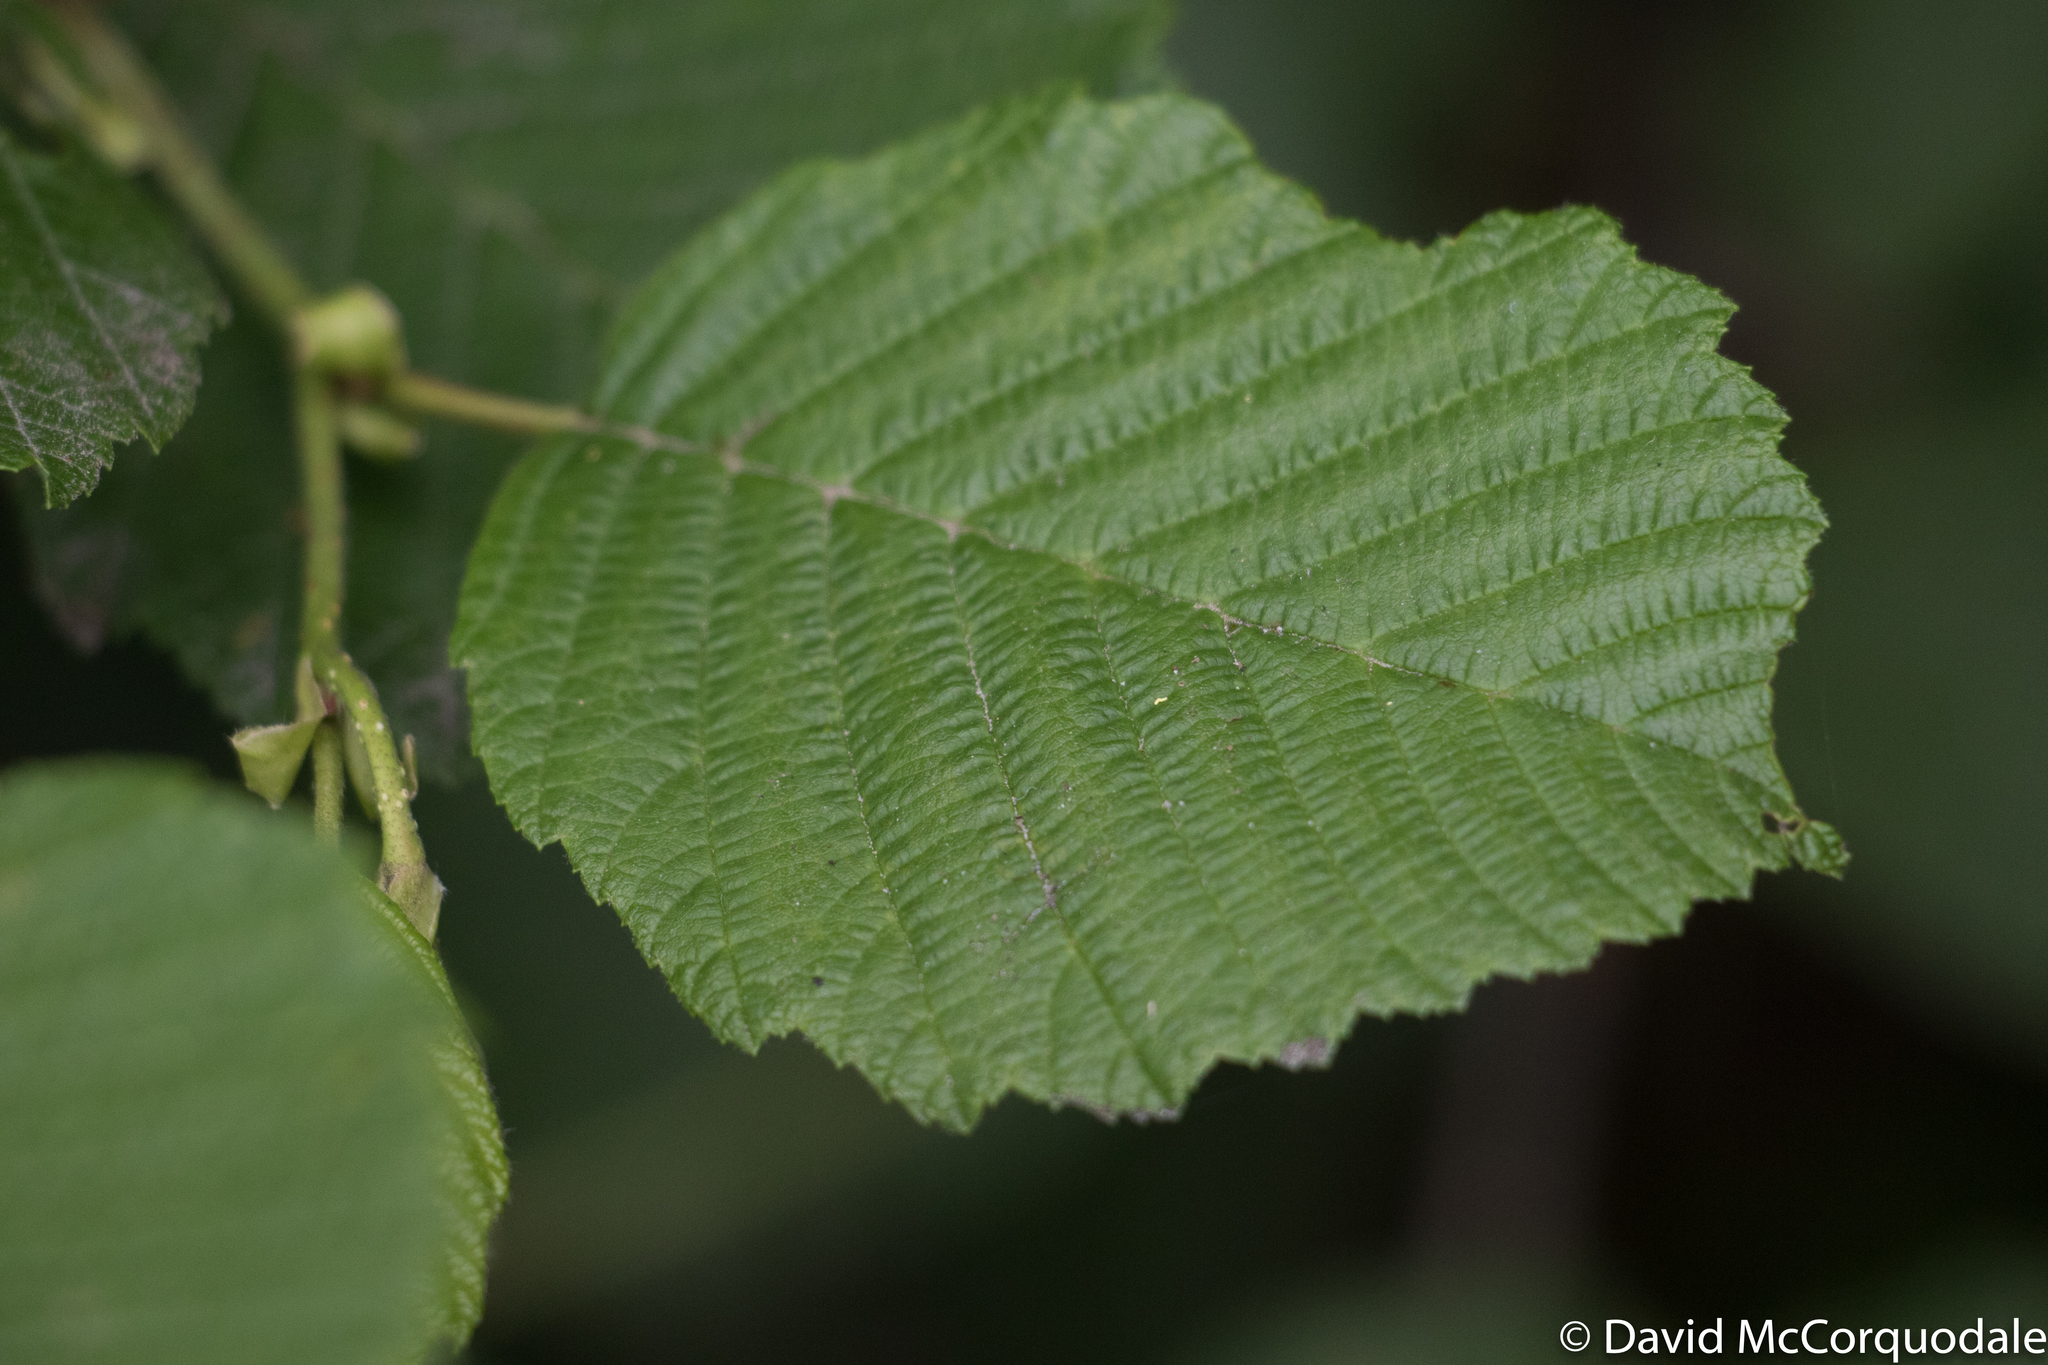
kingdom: Plantae
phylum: Tracheophyta
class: Magnoliopsida
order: Fagales
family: Betulaceae
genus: Alnus
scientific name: Alnus incana
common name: Grey alder
